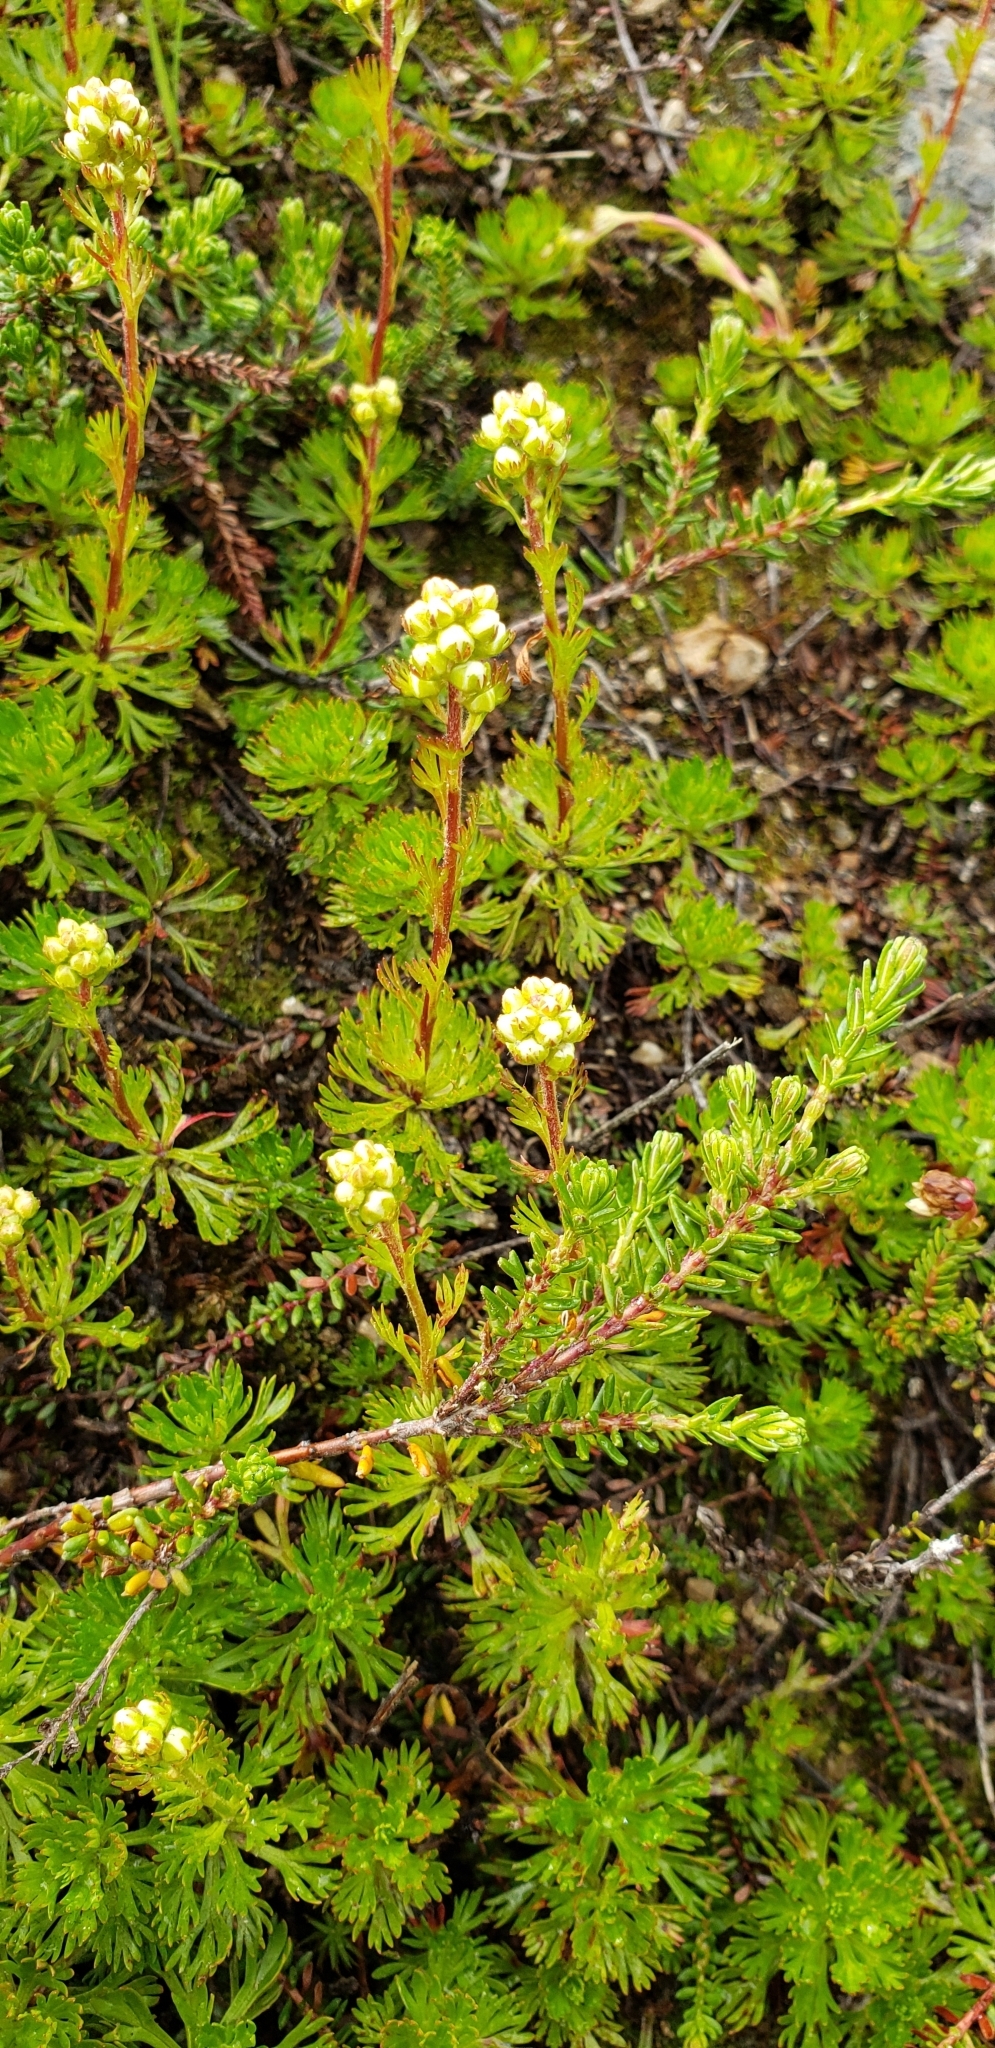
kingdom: Plantae
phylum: Tracheophyta
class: Magnoliopsida
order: Rosales
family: Rosaceae
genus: Luetkea
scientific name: Luetkea pectinata
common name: Partridgefoot
